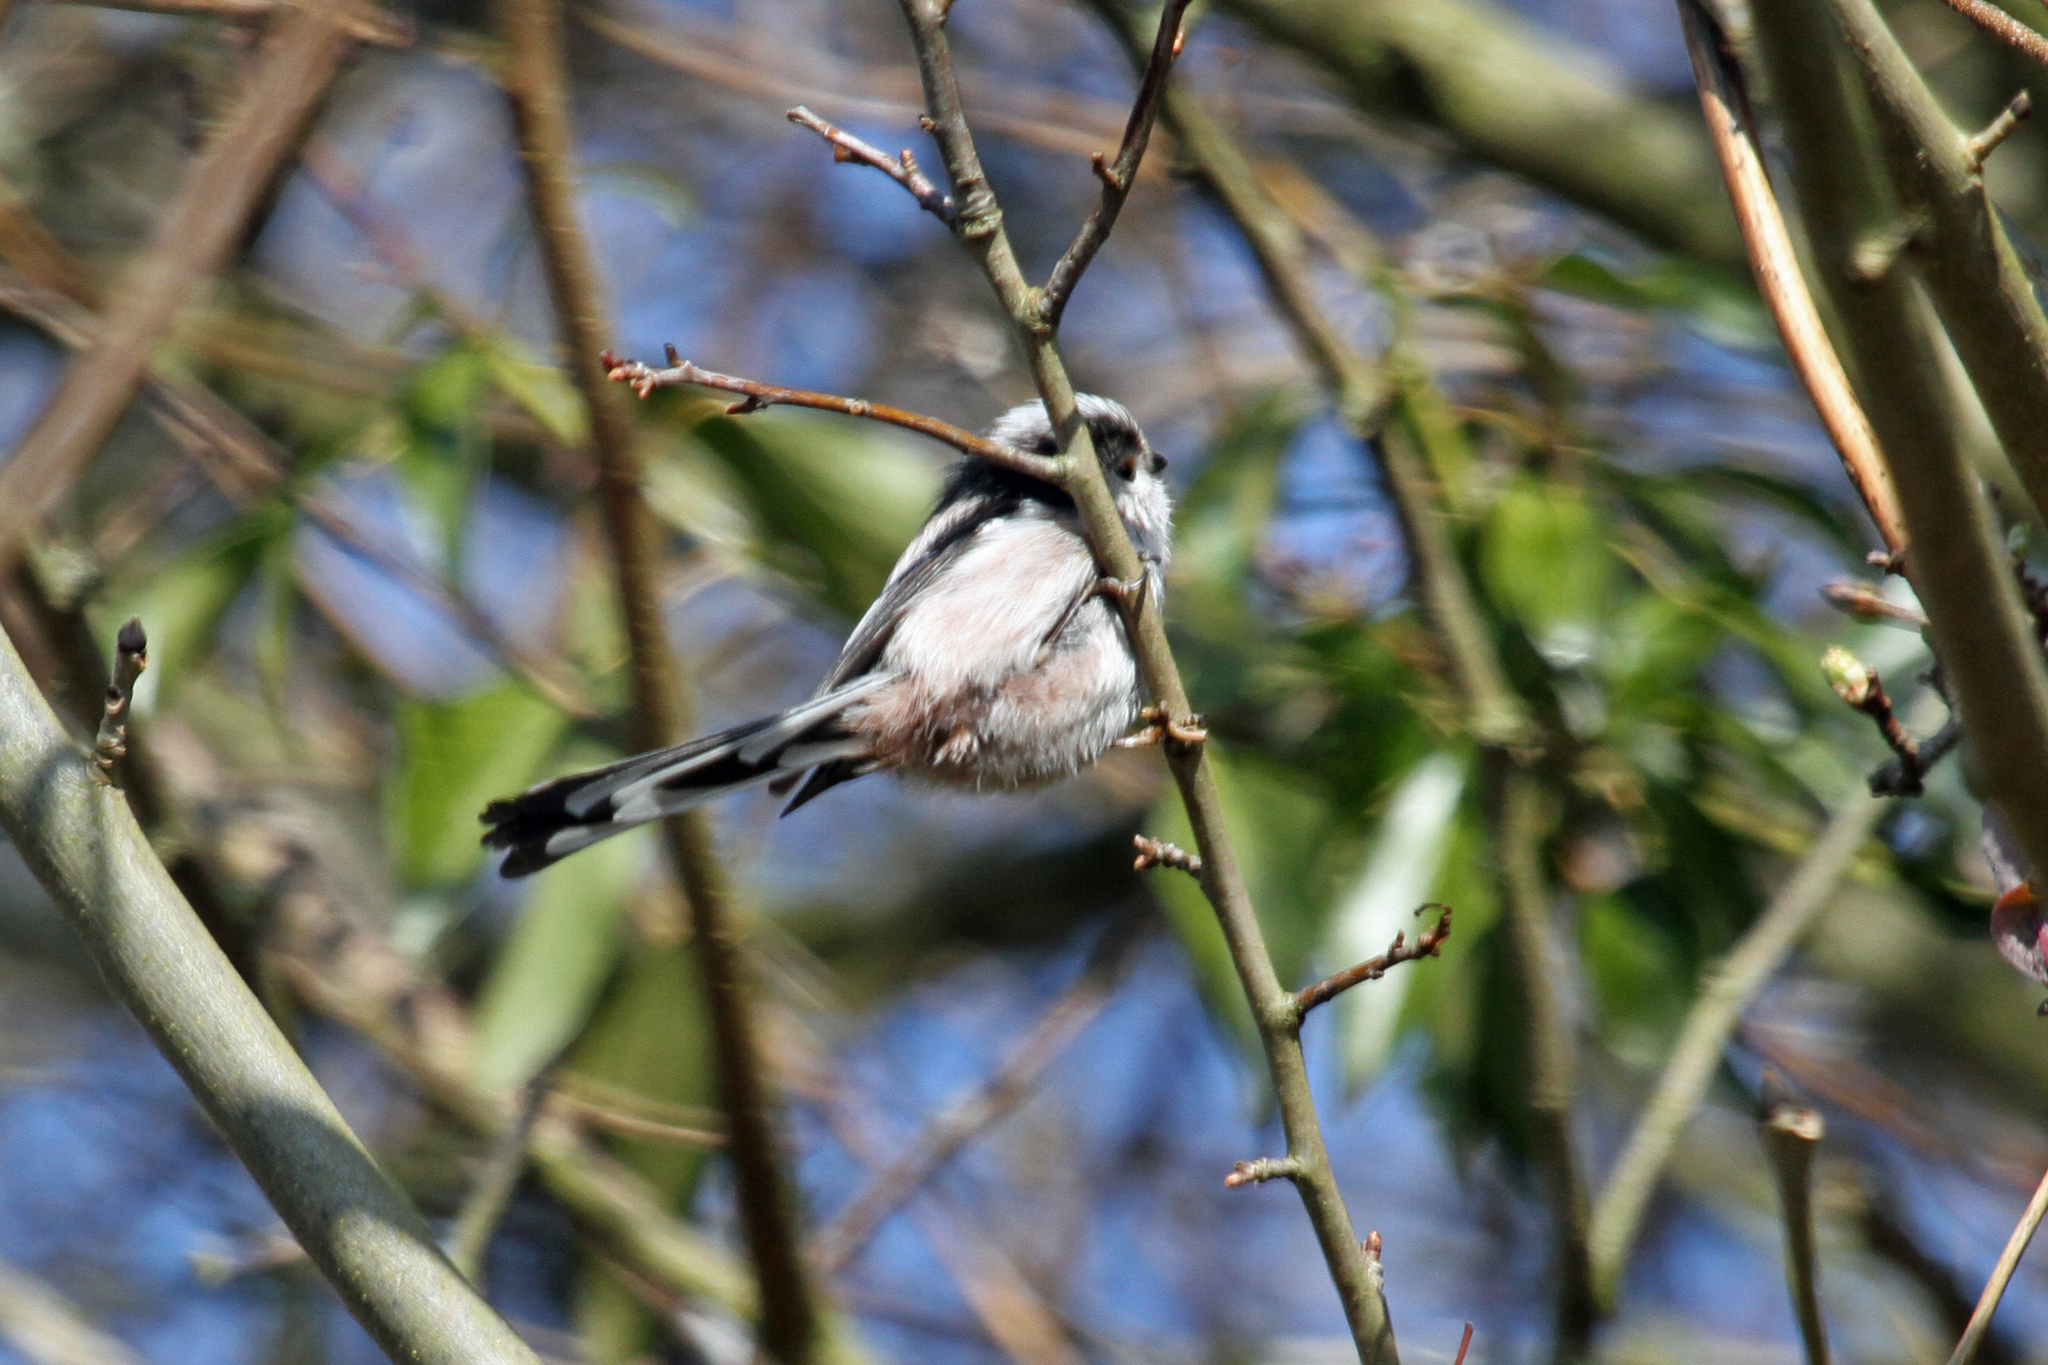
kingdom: Animalia
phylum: Chordata
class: Aves
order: Passeriformes
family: Aegithalidae
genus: Aegithalos
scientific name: Aegithalos caudatus
